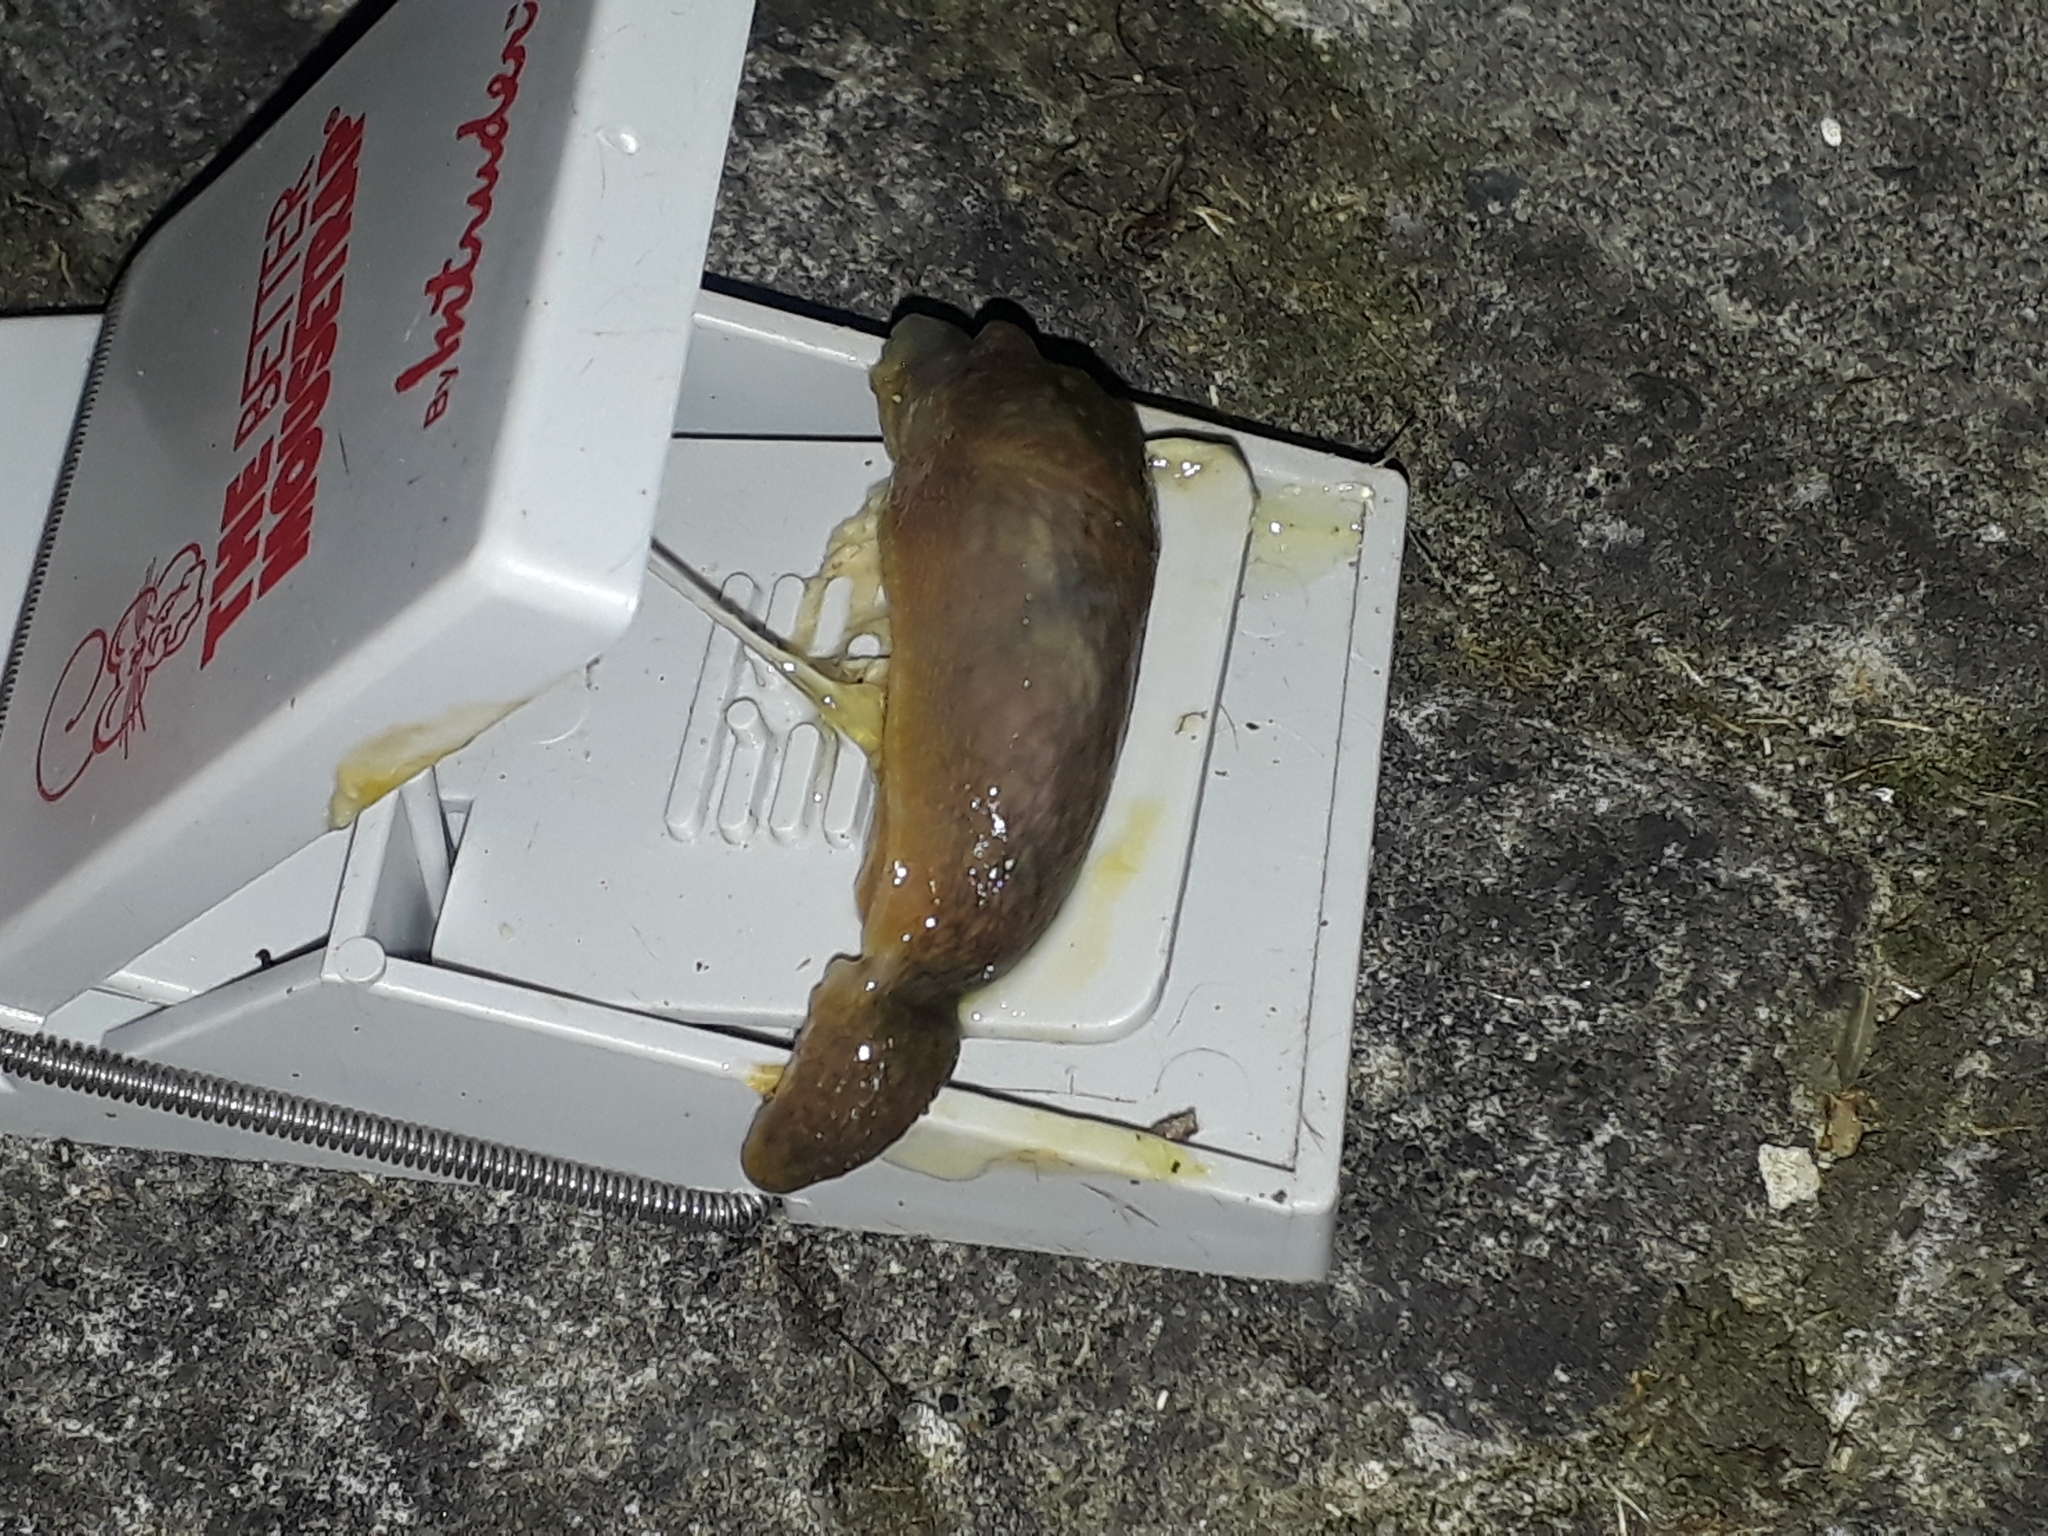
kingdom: Animalia
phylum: Mollusca
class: Gastropoda
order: Stylommatophora
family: Limacidae
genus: Limacus
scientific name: Limacus flavus
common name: Yellow gardenslug
